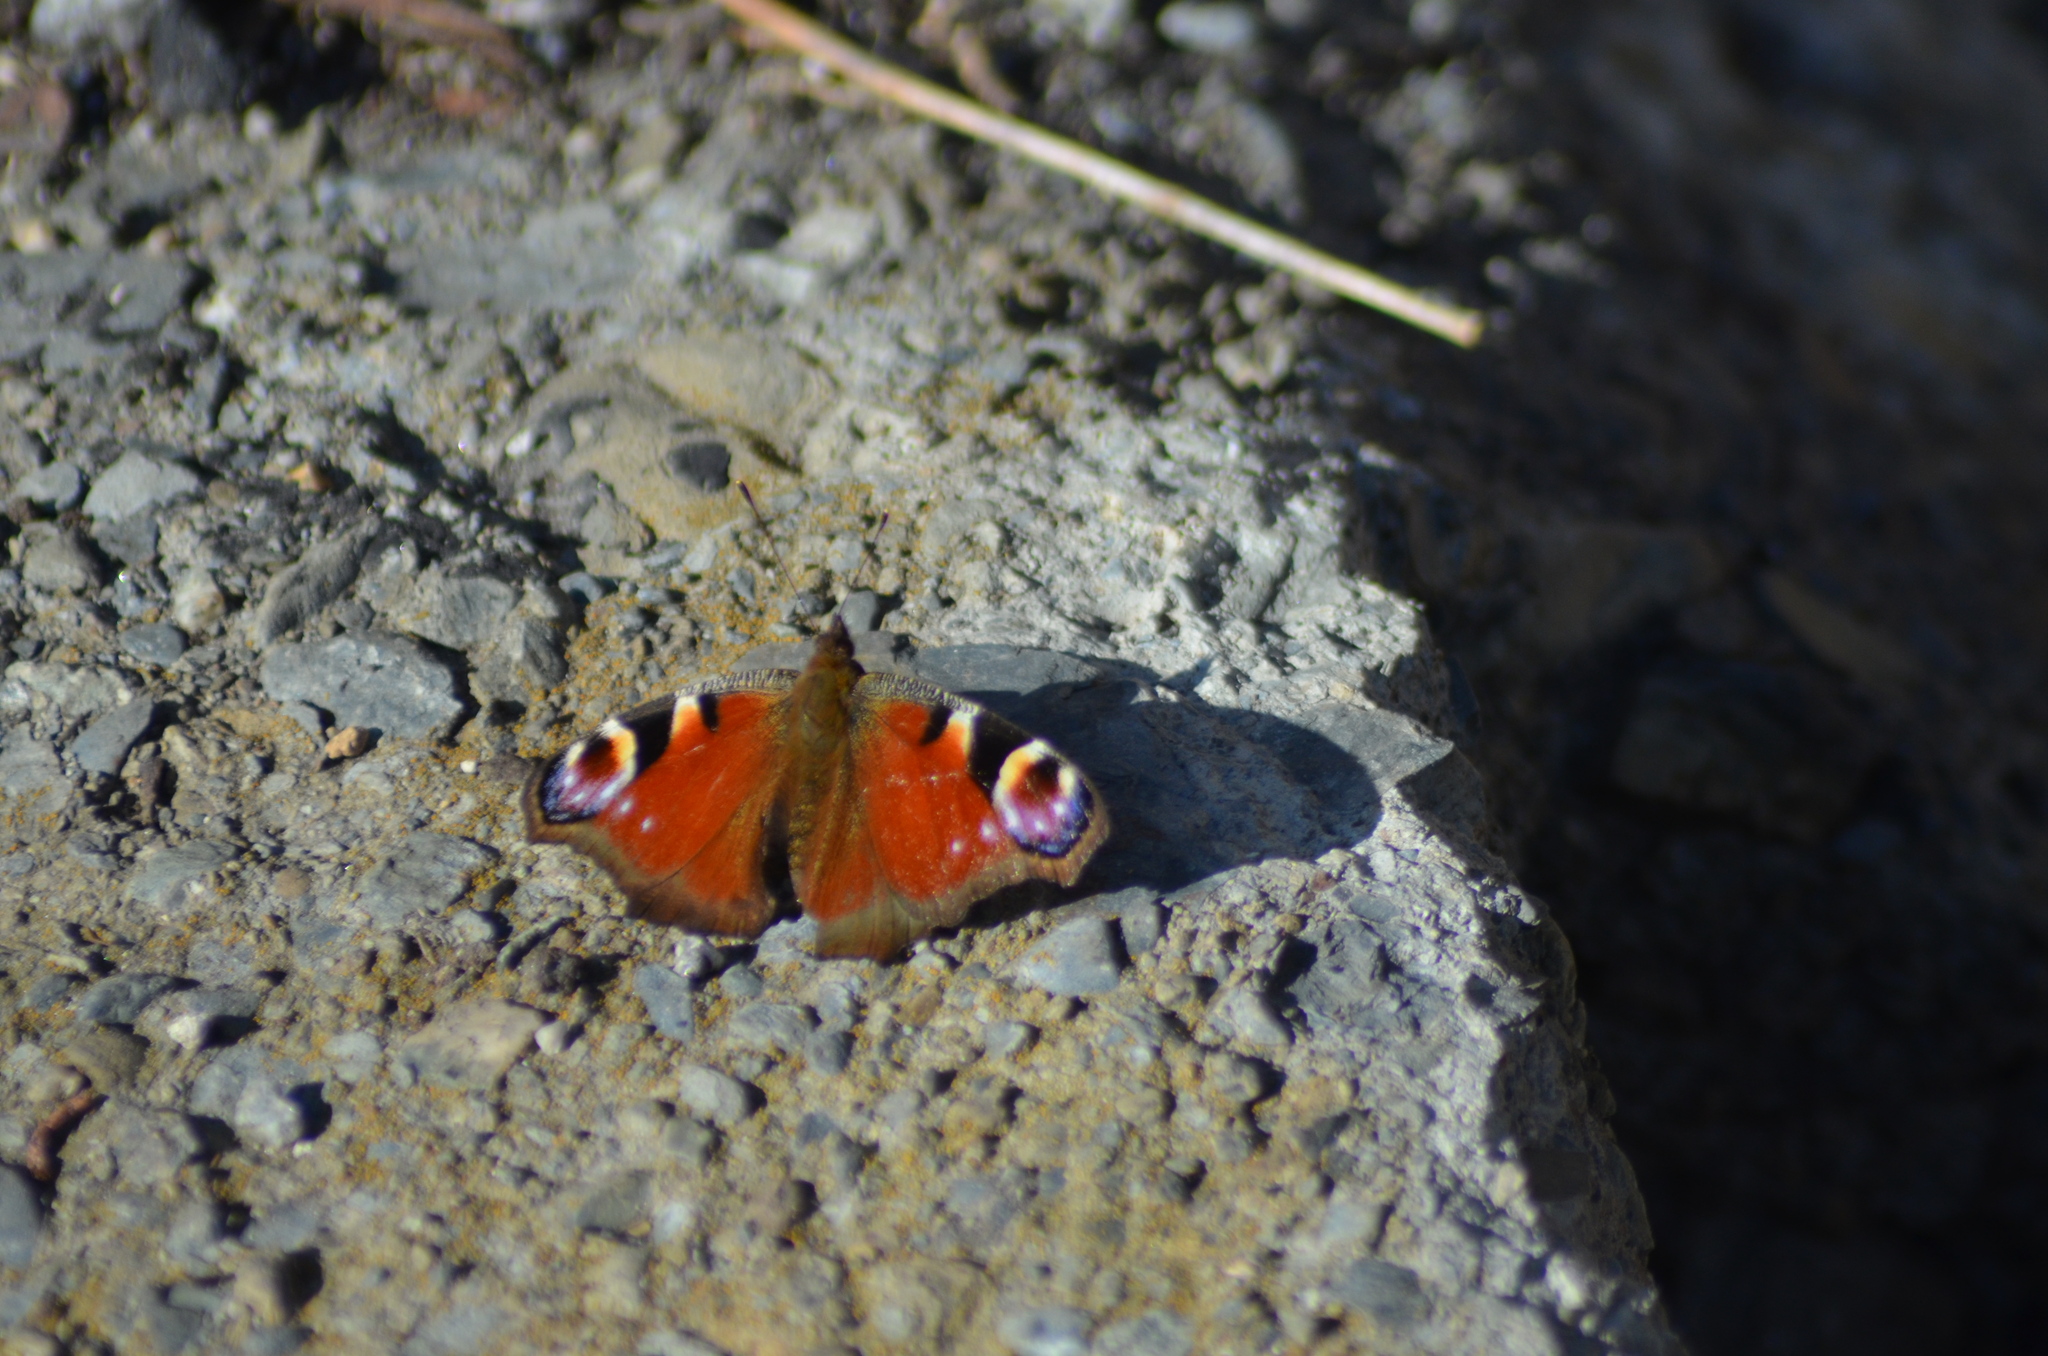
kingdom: Animalia
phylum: Arthropoda
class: Insecta
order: Lepidoptera
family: Nymphalidae
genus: Aglais
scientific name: Aglais io
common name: Peacock
